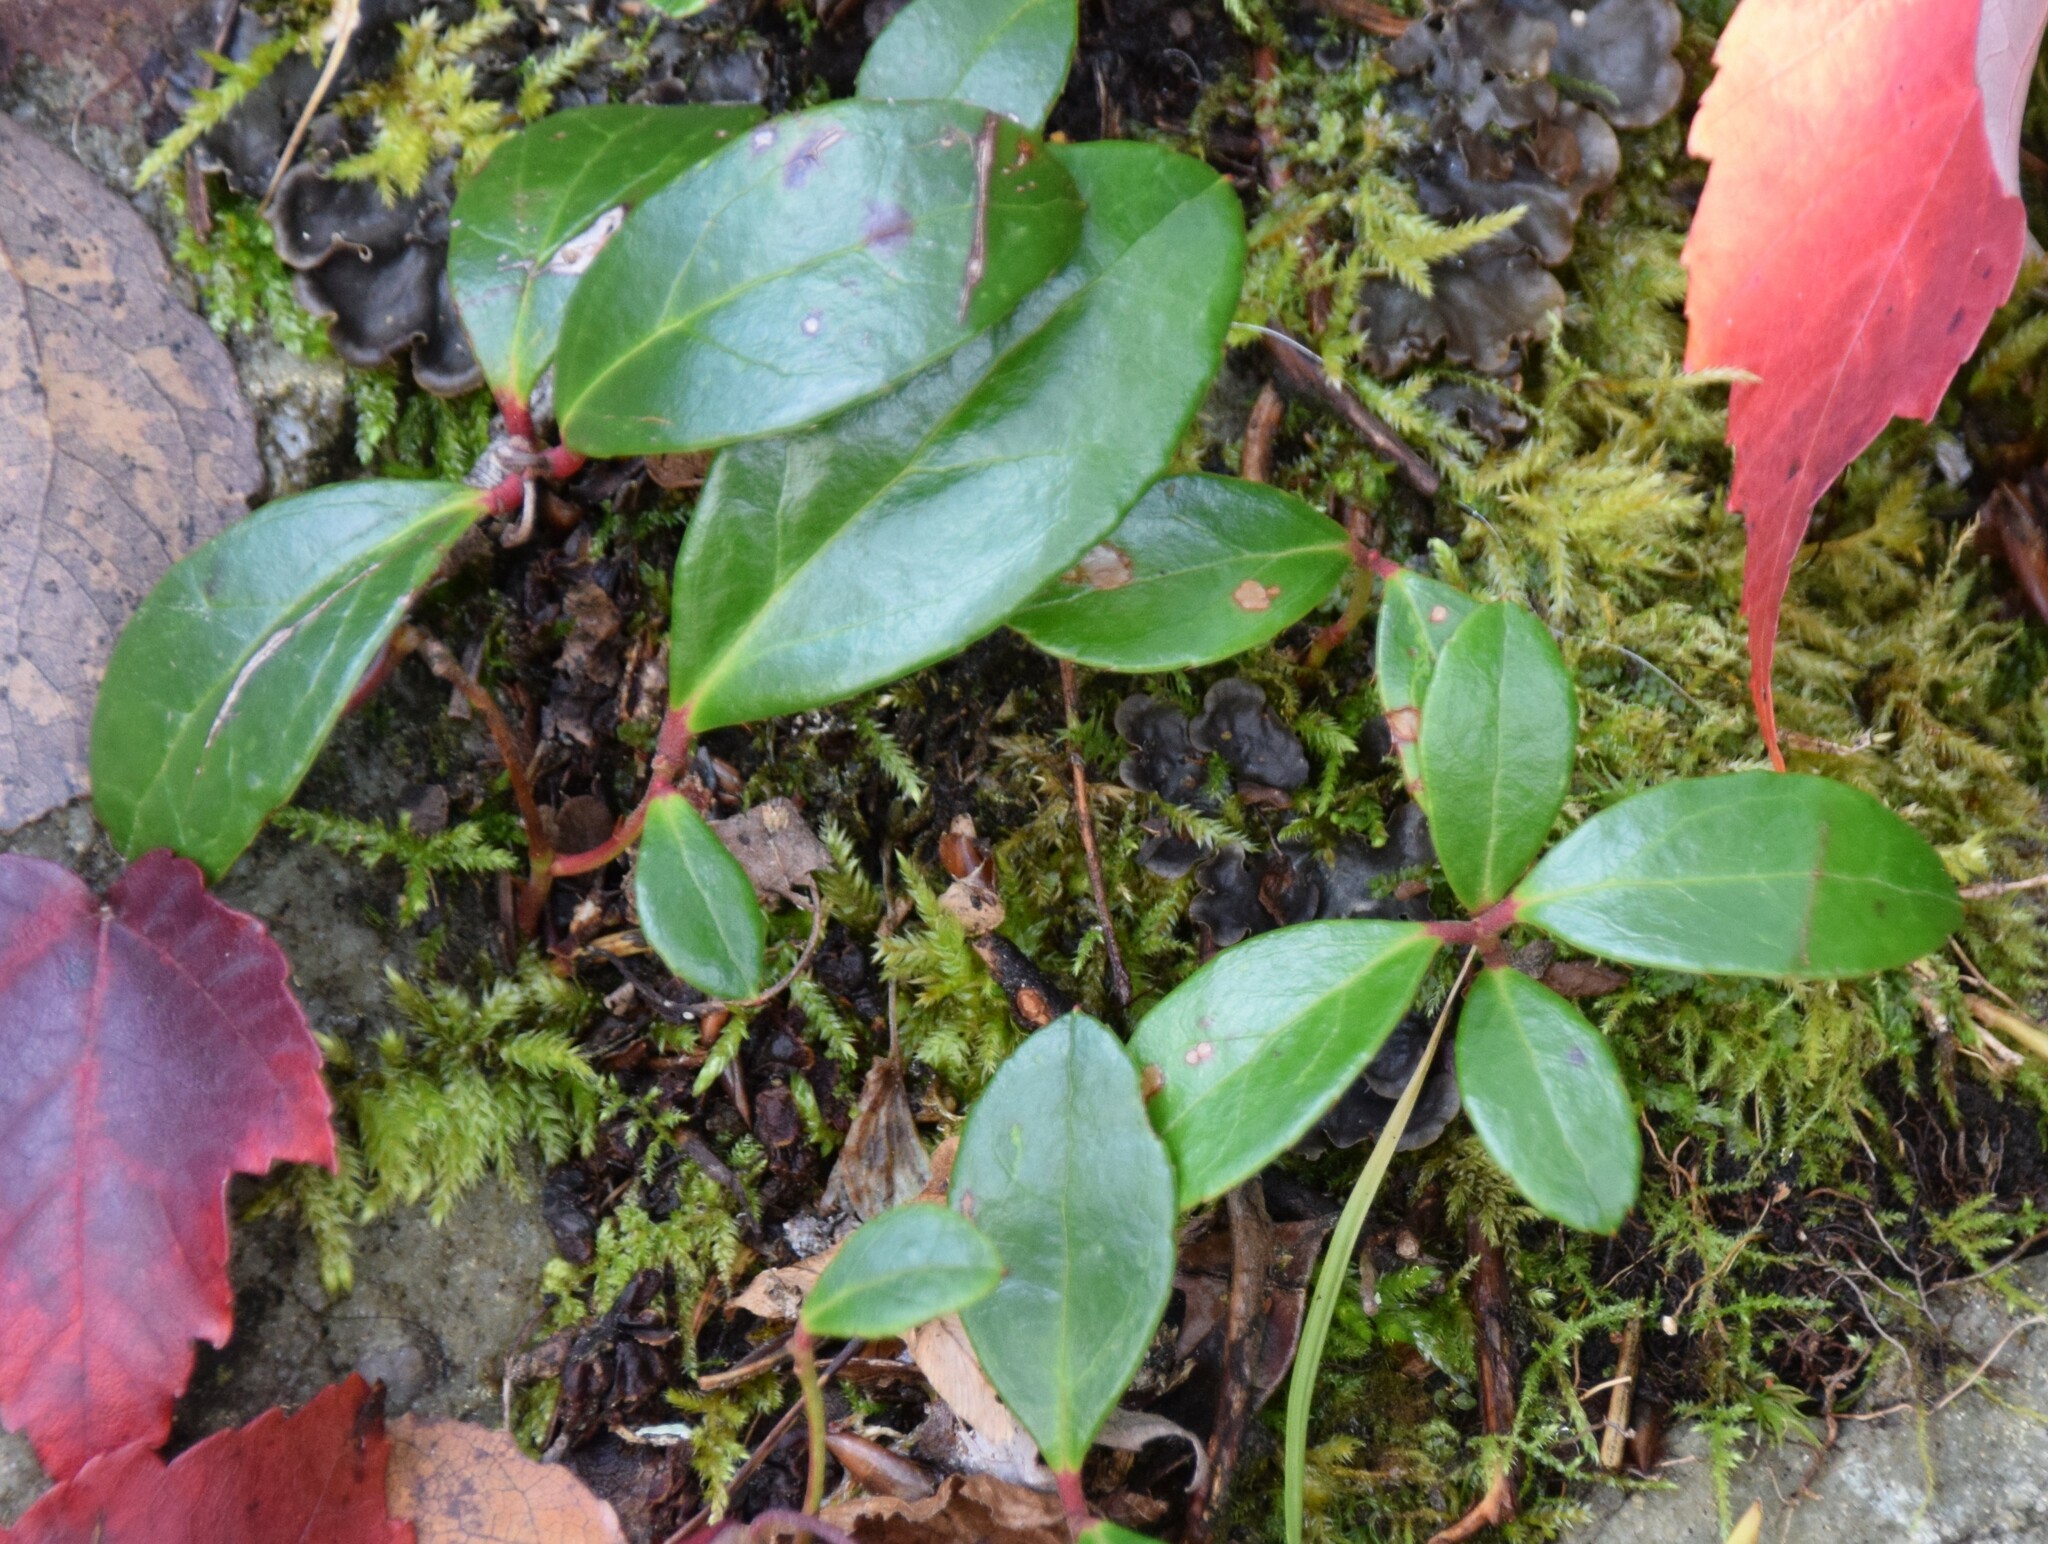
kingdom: Plantae
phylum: Tracheophyta
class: Magnoliopsida
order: Ericales
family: Ericaceae
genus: Gaultheria
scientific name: Gaultheria procumbens
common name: Checkerberry
